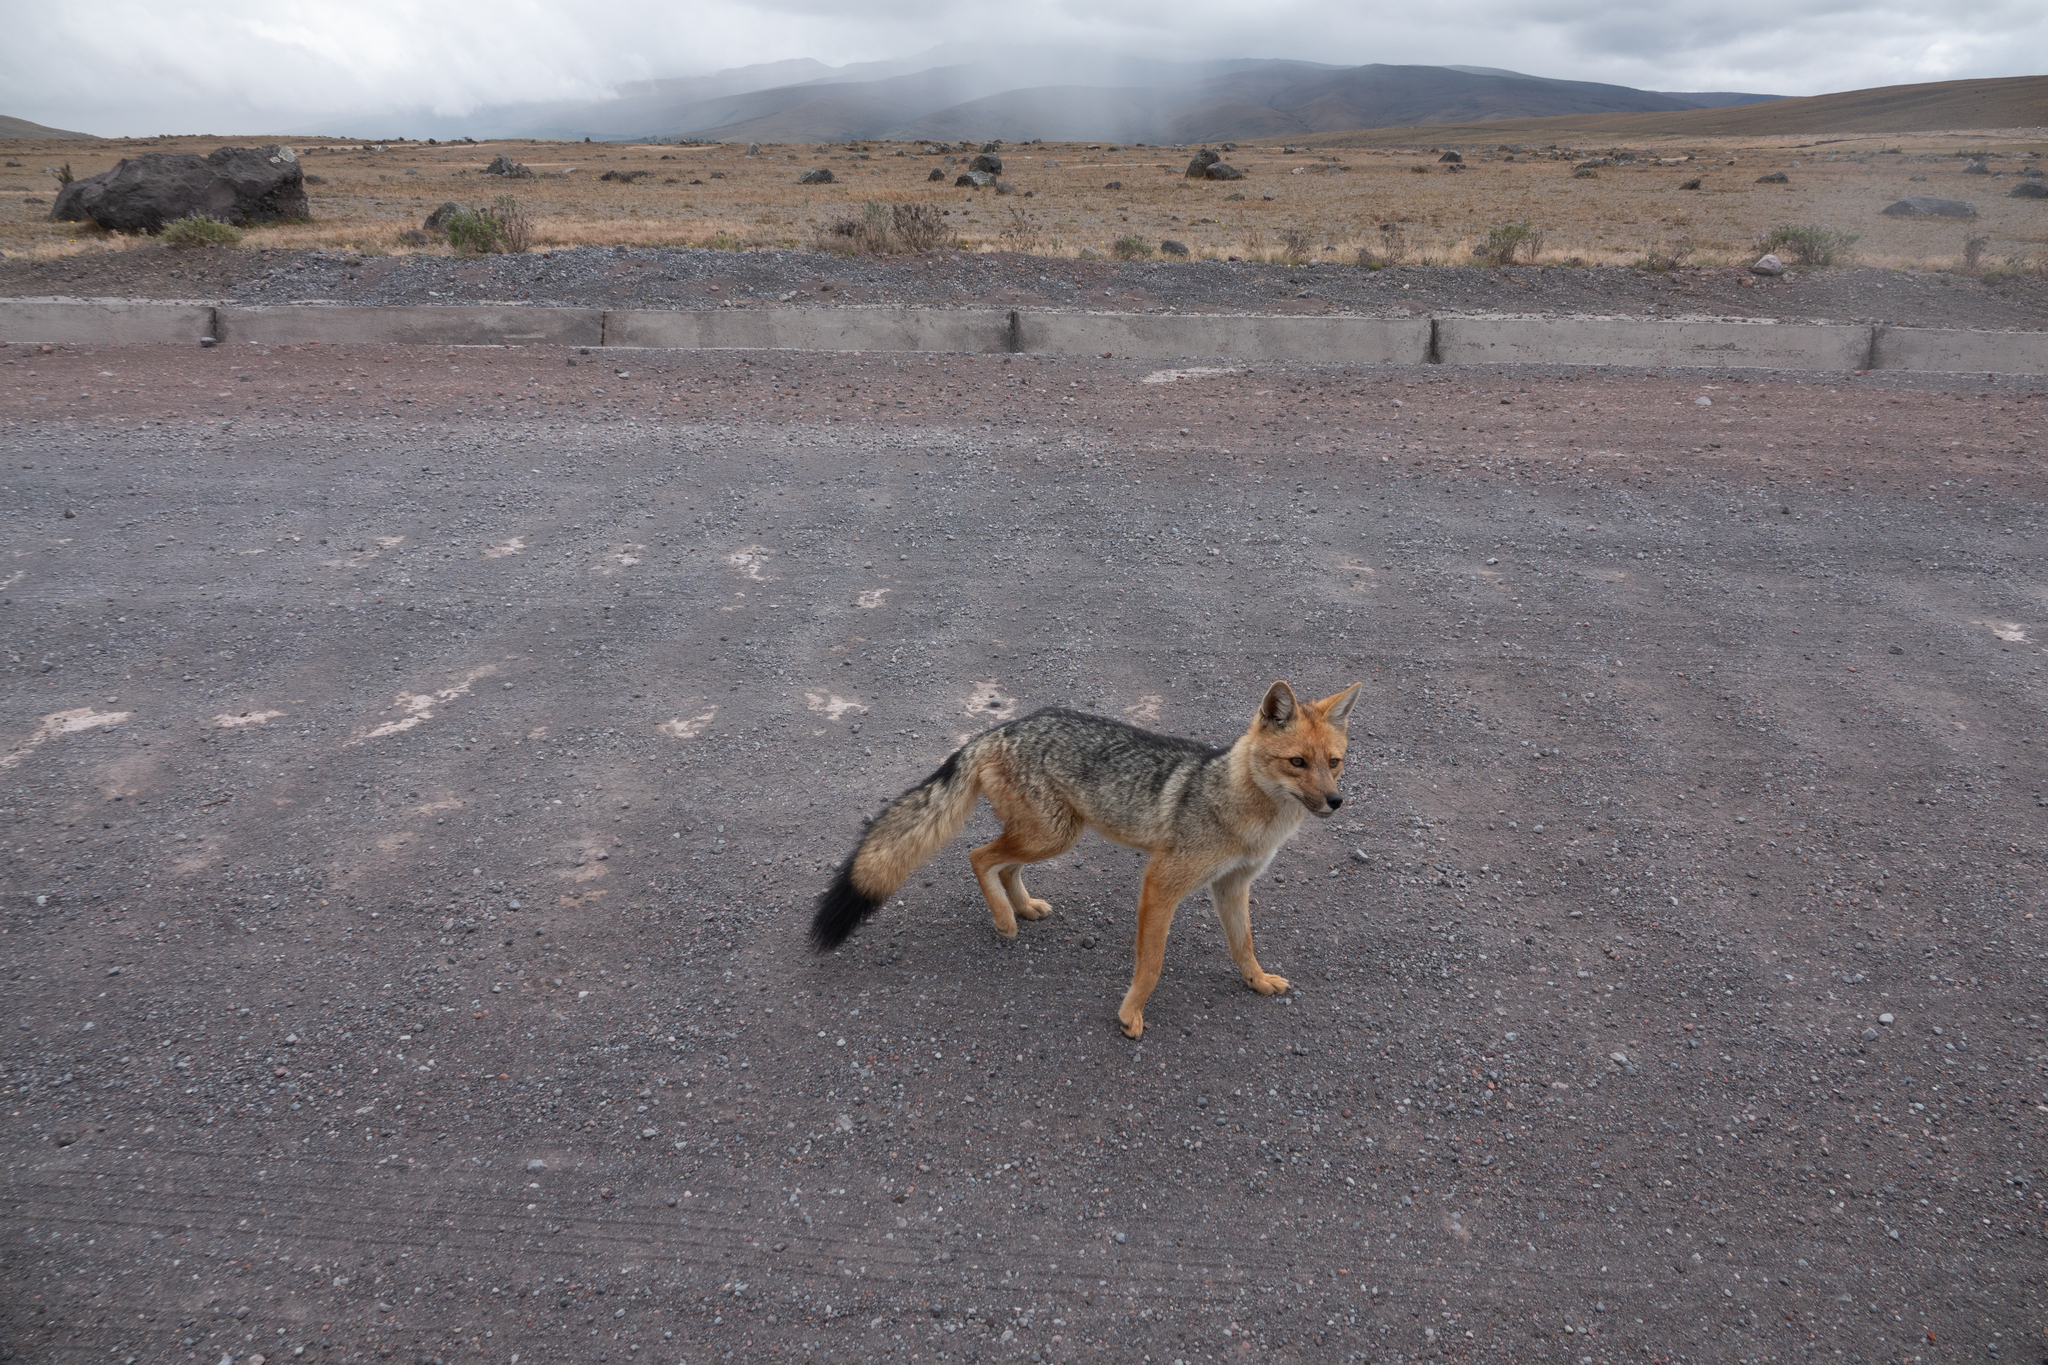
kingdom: Animalia
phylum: Chordata
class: Mammalia
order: Carnivora
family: Canidae
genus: Lycalopex
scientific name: Lycalopex culpaeus
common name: Culpeo
